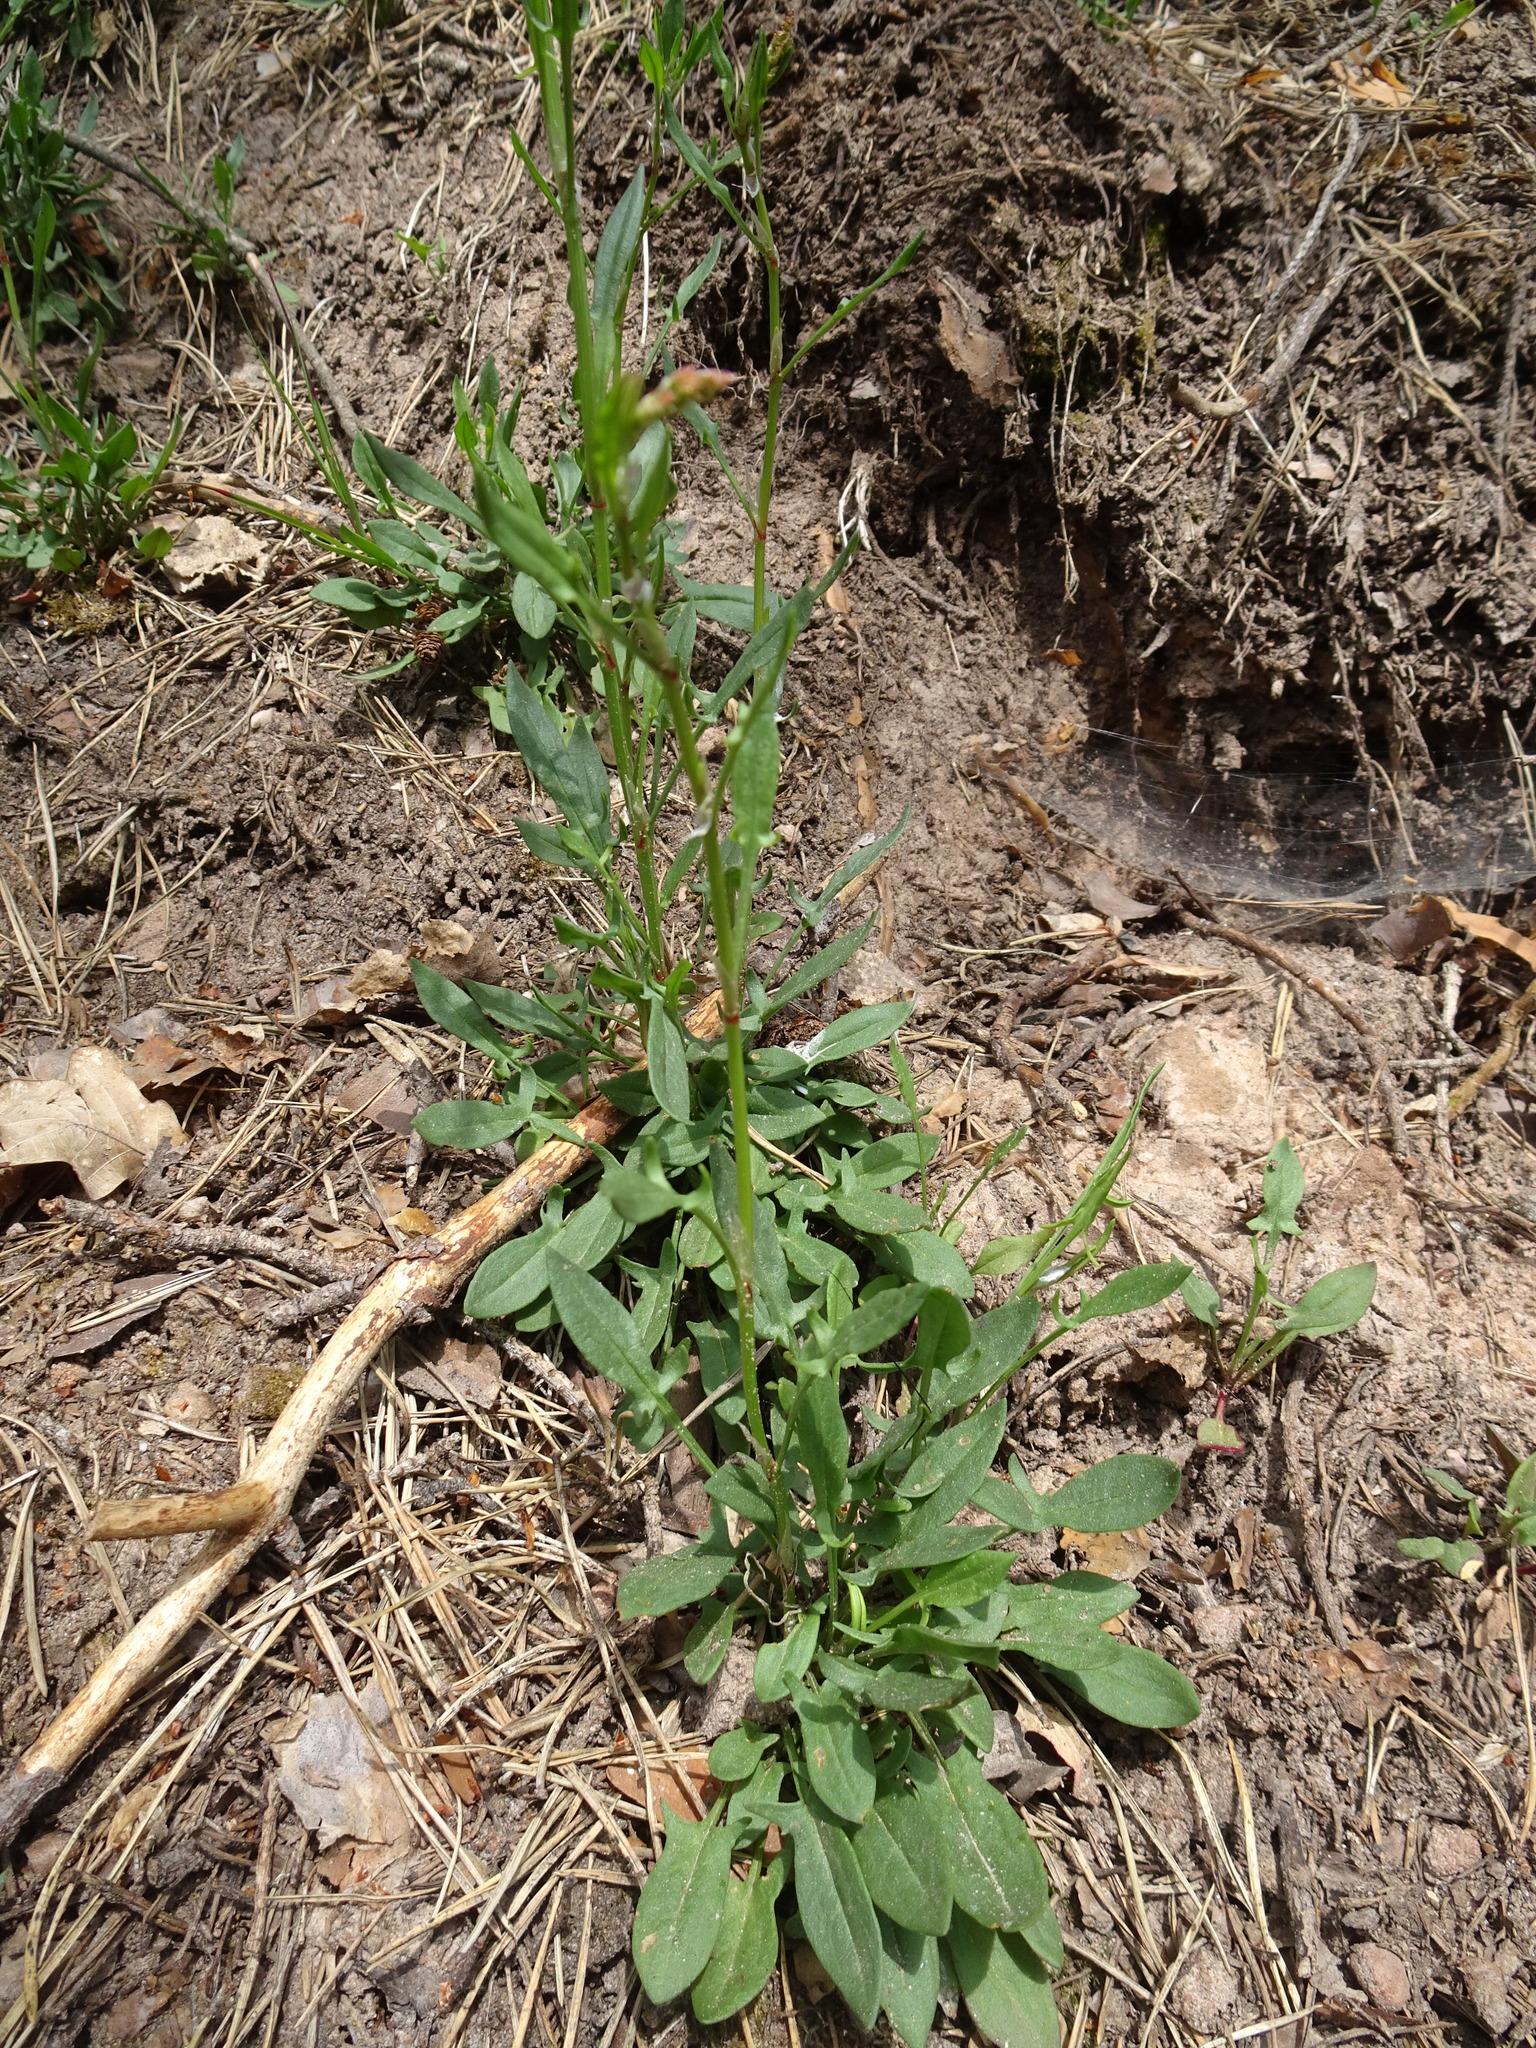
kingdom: Plantae
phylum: Tracheophyta
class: Magnoliopsida
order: Caryophyllales
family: Polygonaceae
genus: Rumex
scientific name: Rumex acetosella
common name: Common sheep sorrel
